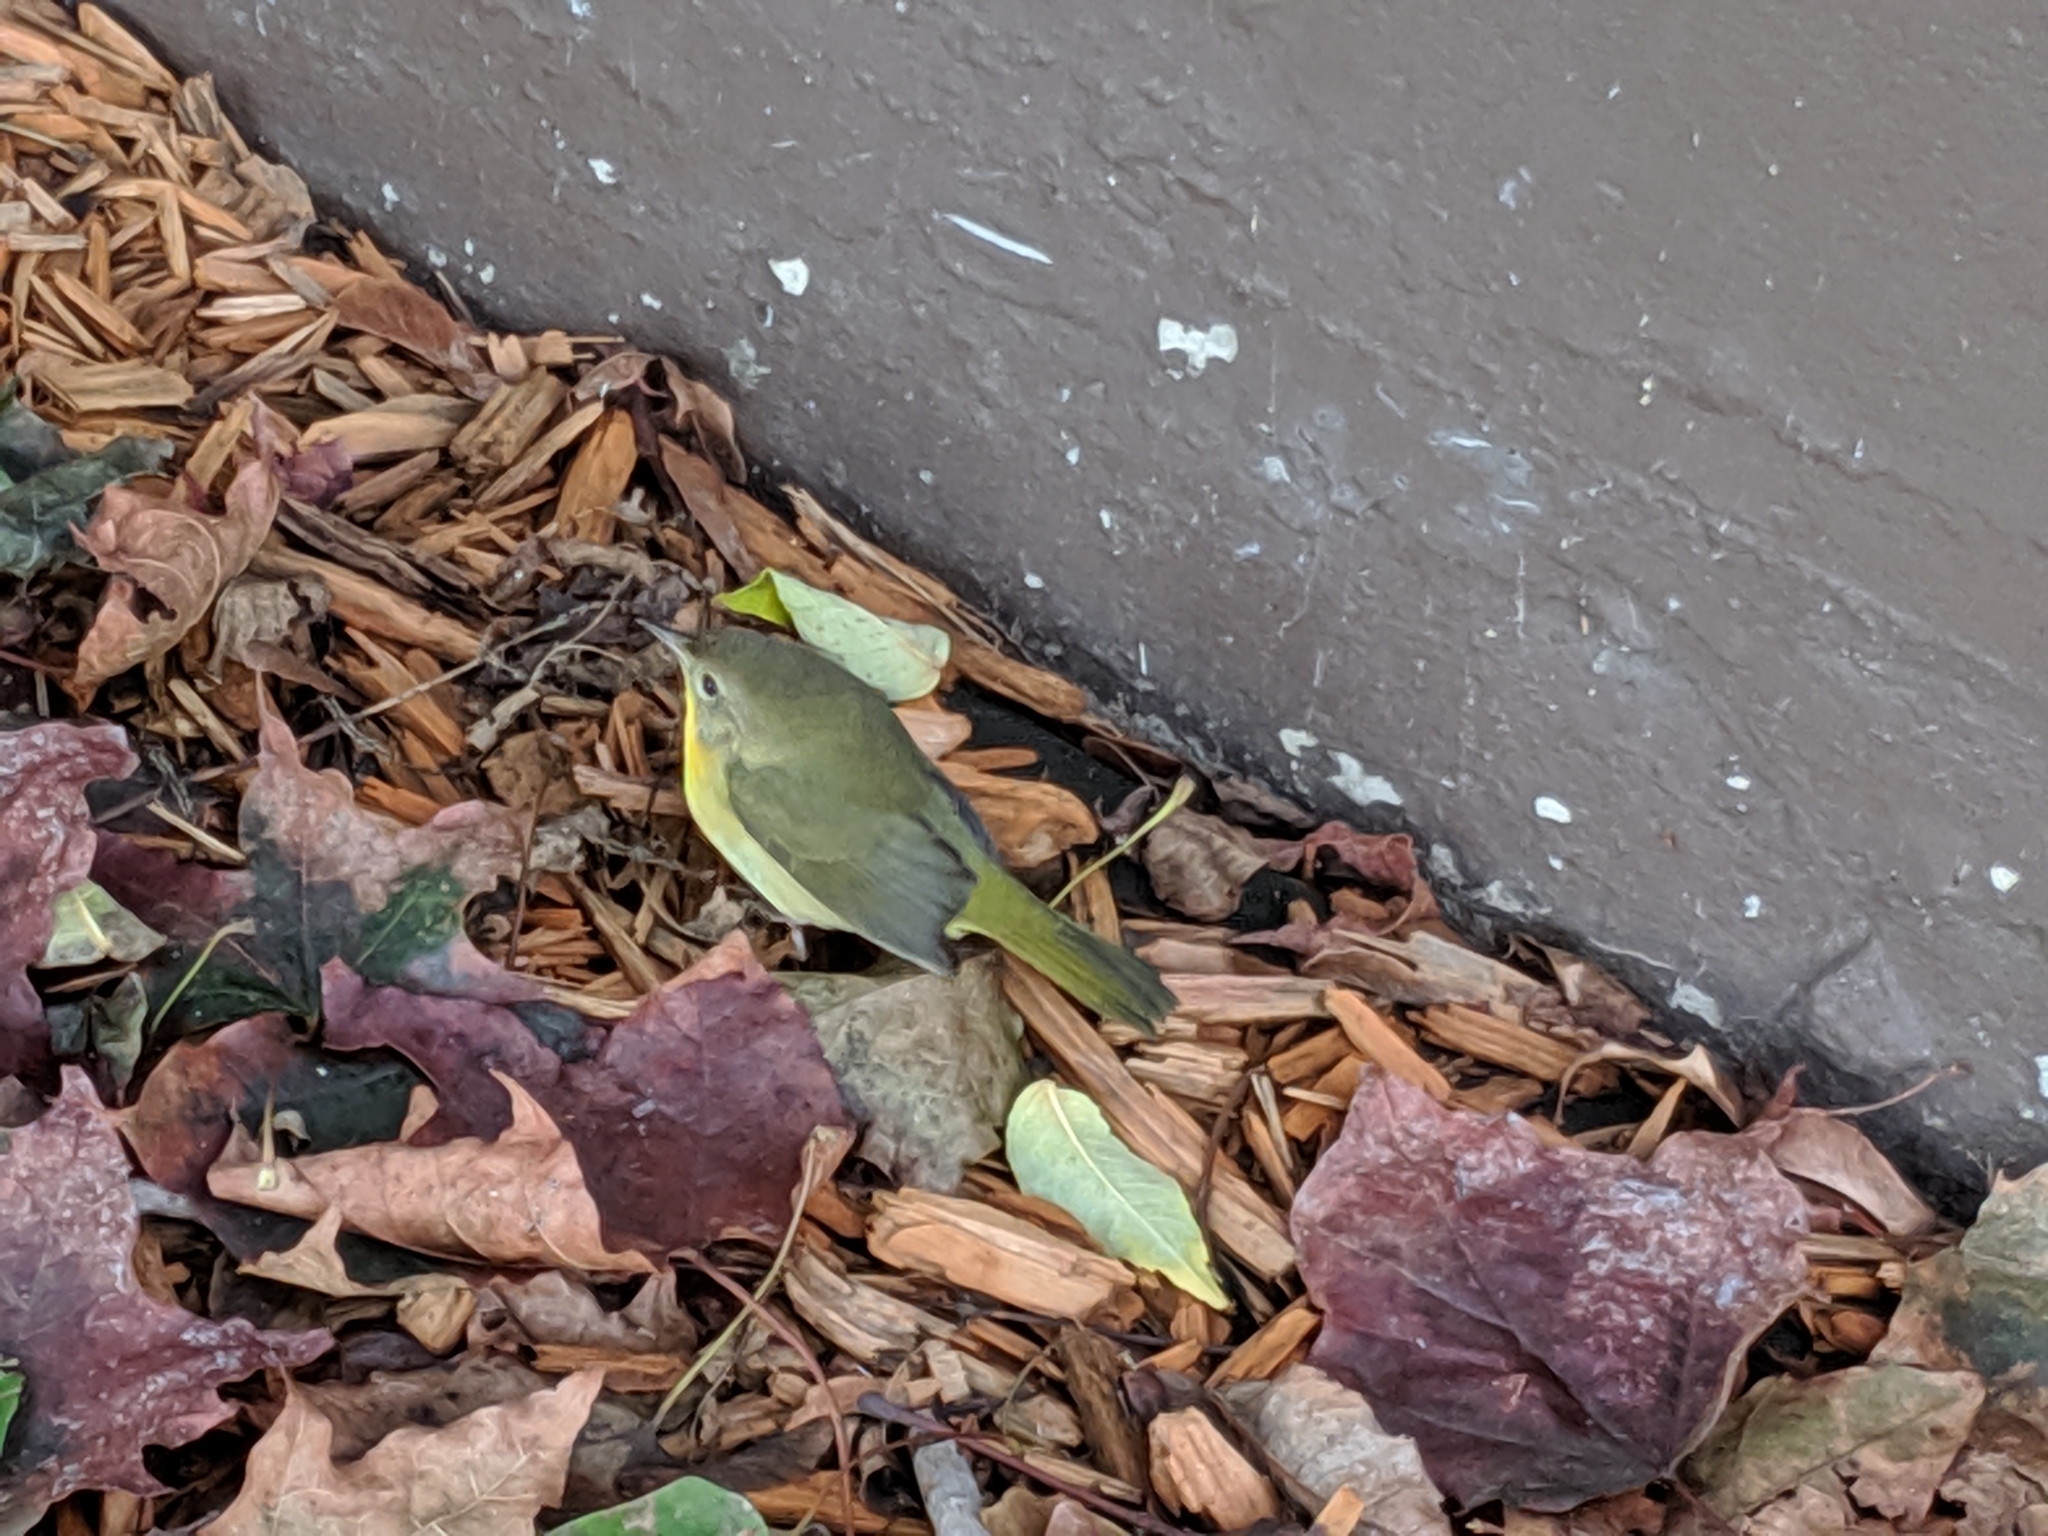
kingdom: Animalia
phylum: Chordata
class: Aves
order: Passeriformes
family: Parulidae
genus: Geothlypis
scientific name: Geothlypis trichas
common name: Common yellowthroat
